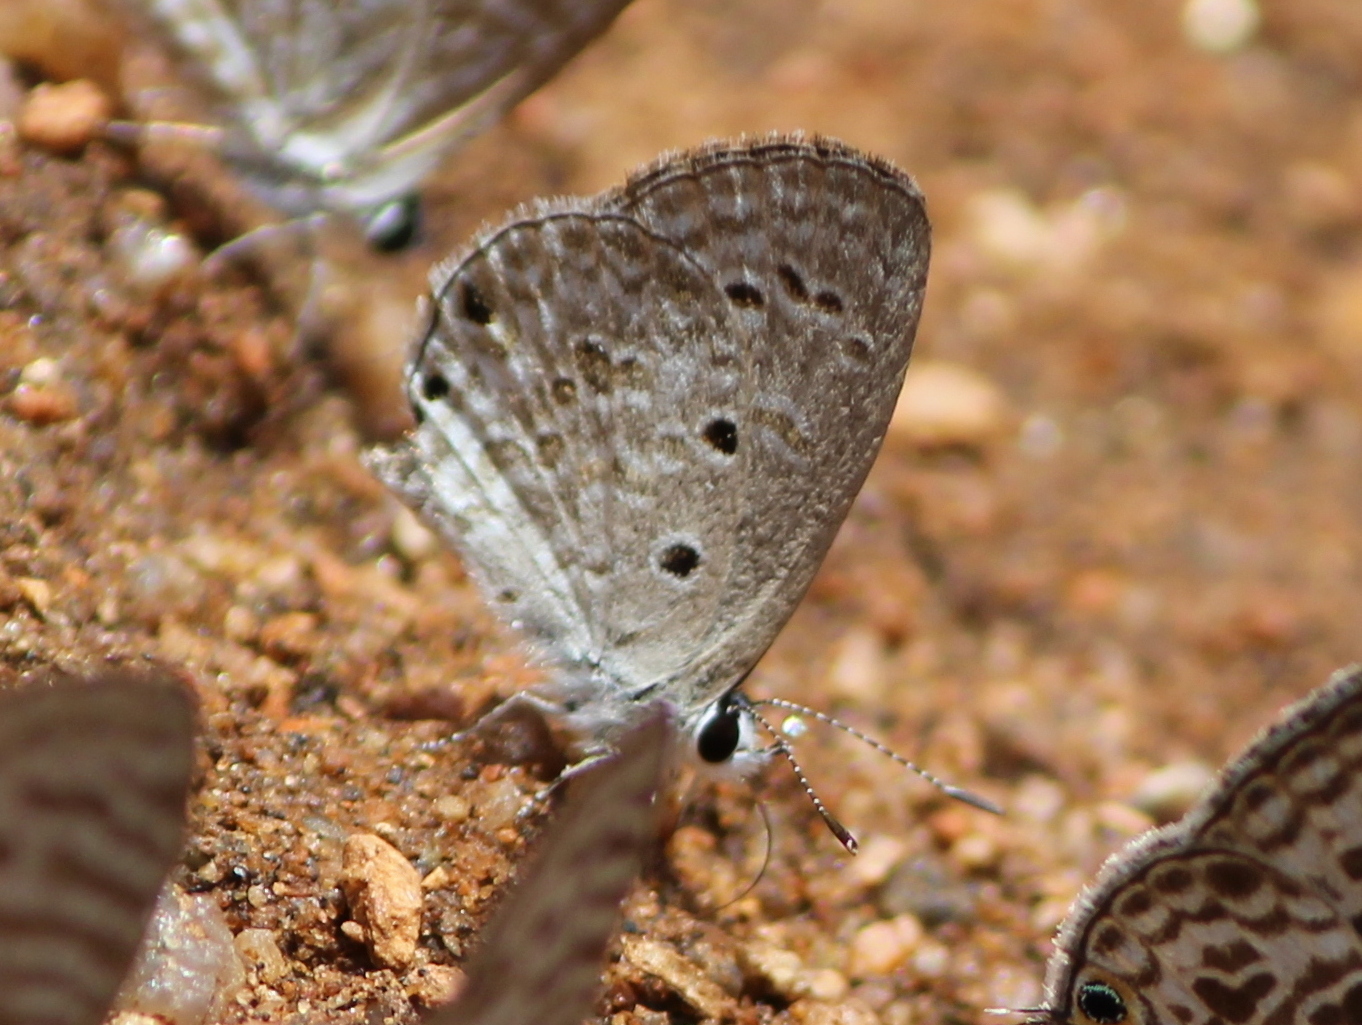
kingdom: Animalia
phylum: Arthropoda
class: Insecta
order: Lepidoptera
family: Lycaenidae
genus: Chilades
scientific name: Chilades laius
